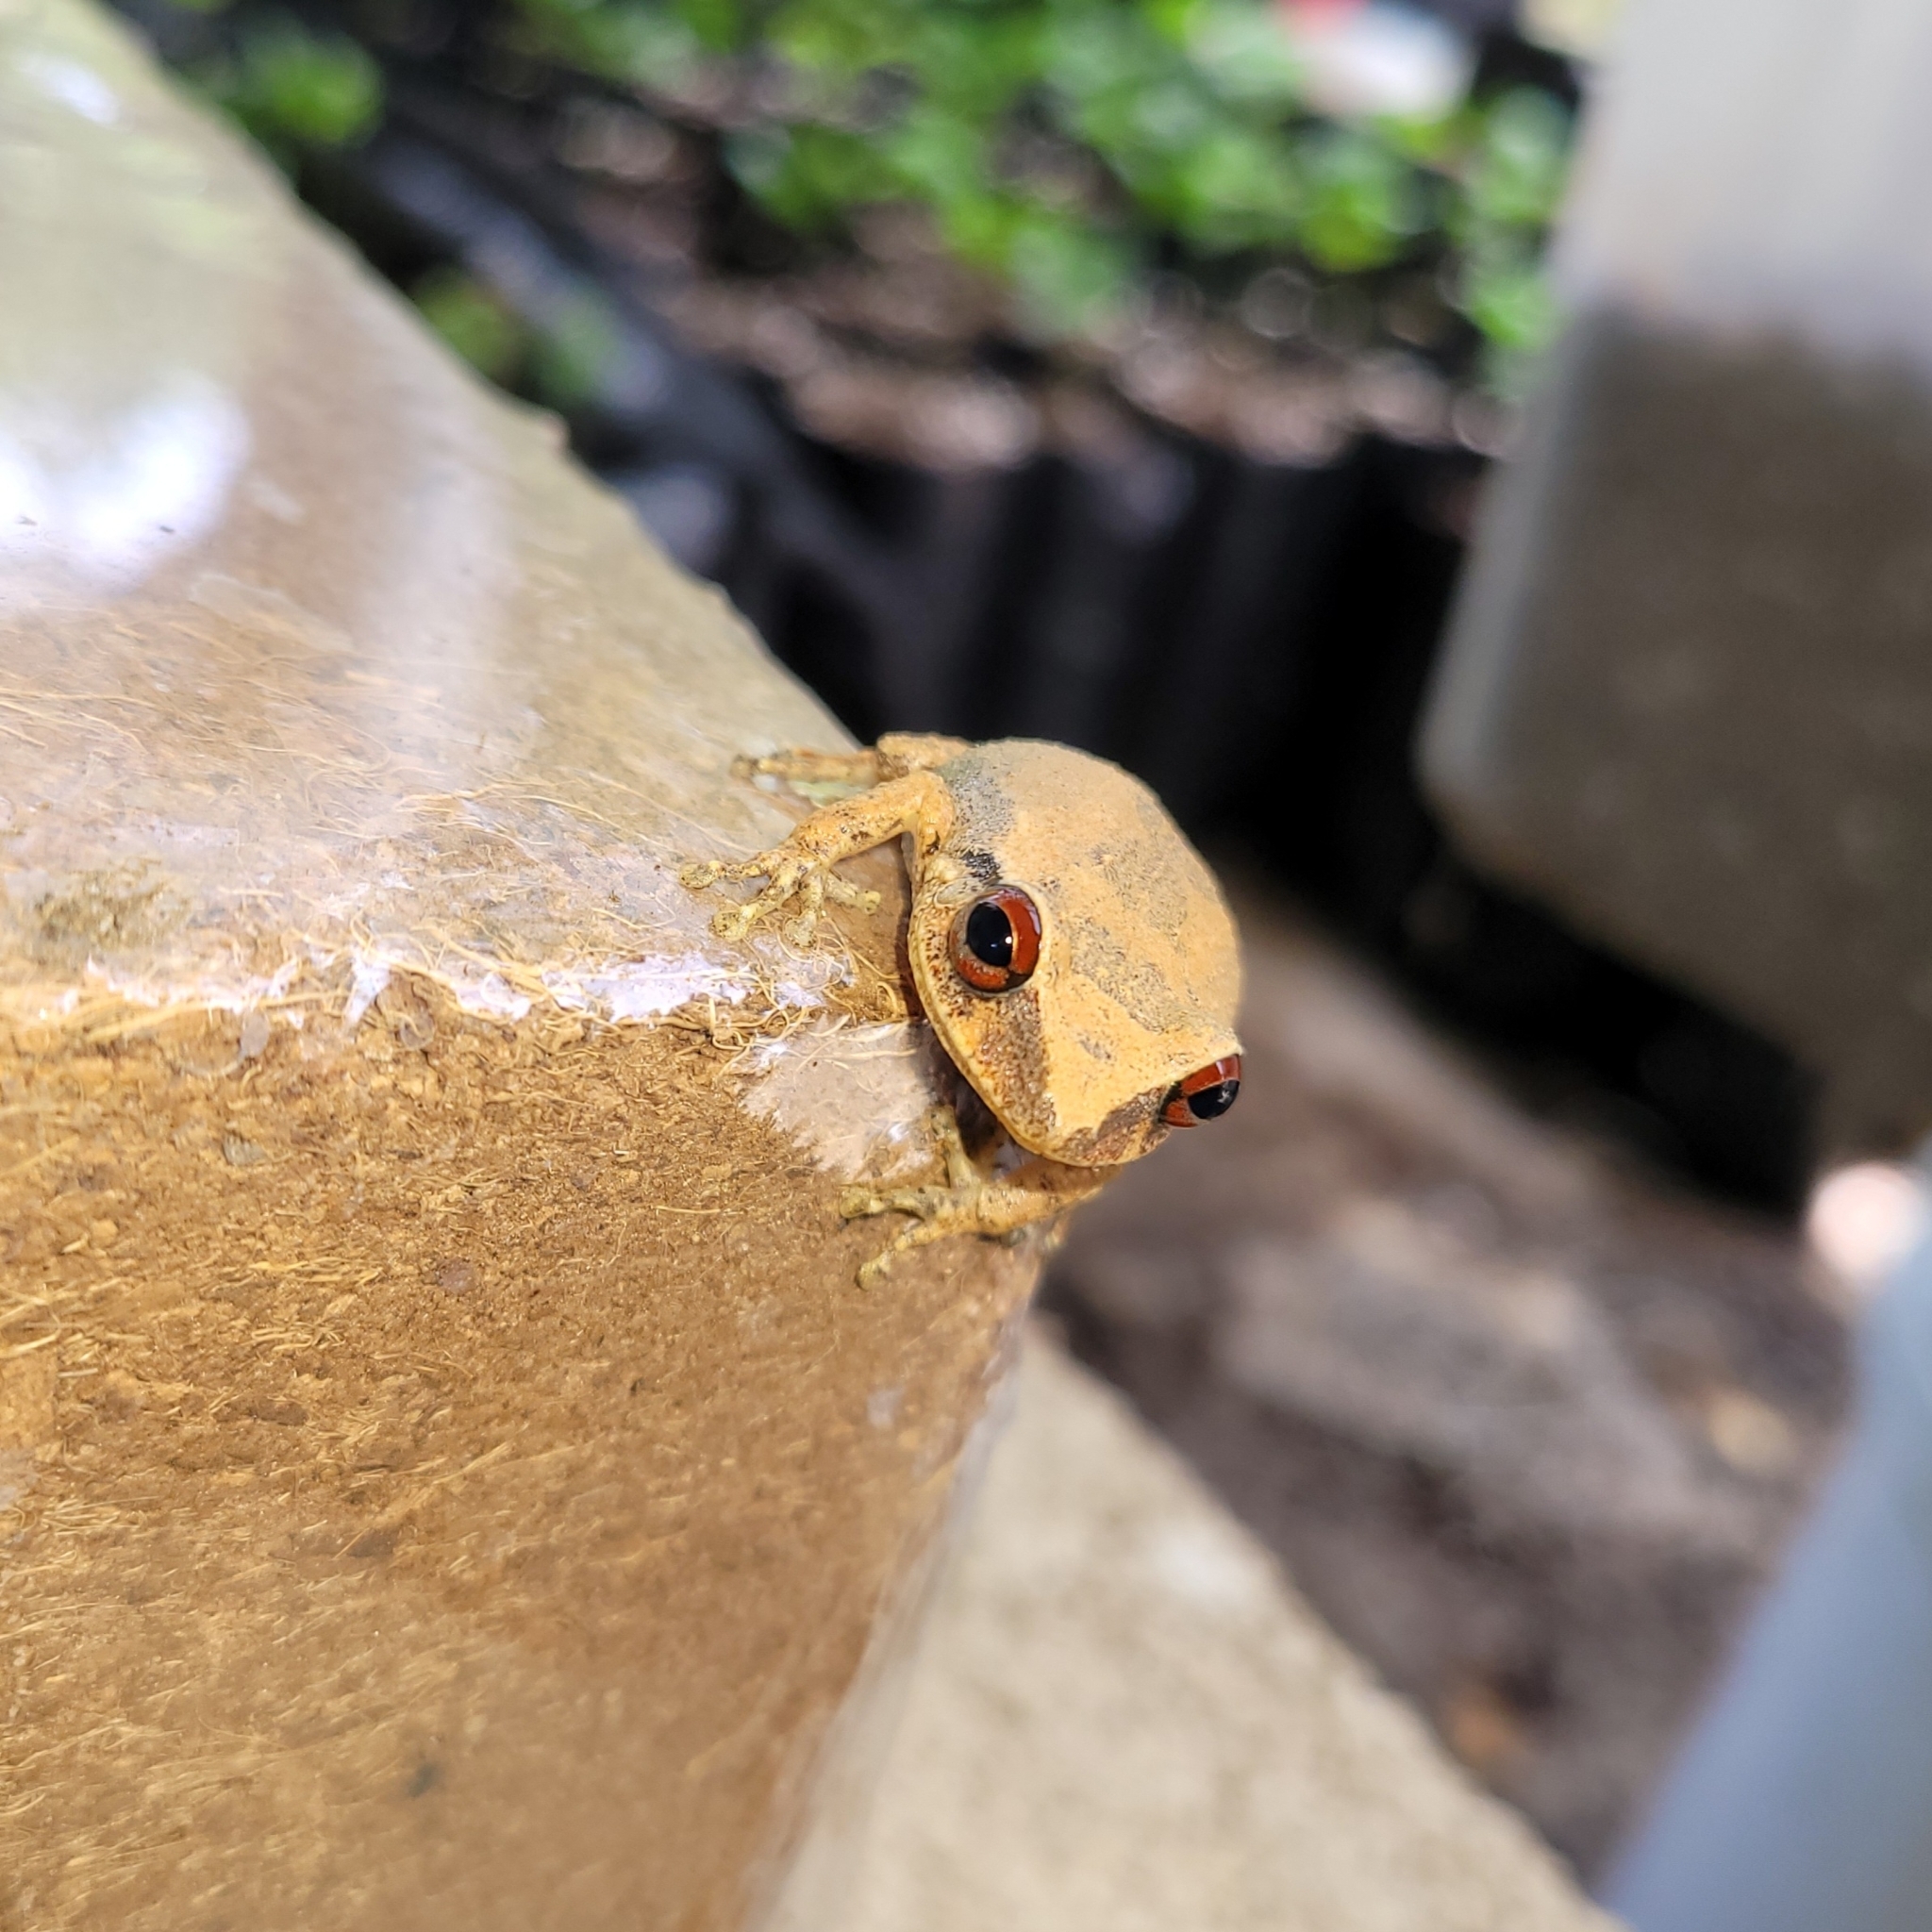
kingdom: Animalia
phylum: Chordata
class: Amphibia
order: Anura
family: Eleutherodactylidae
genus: Eleutherodactylus
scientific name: Eleutherodactylus antillensis
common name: Antillean coqui
